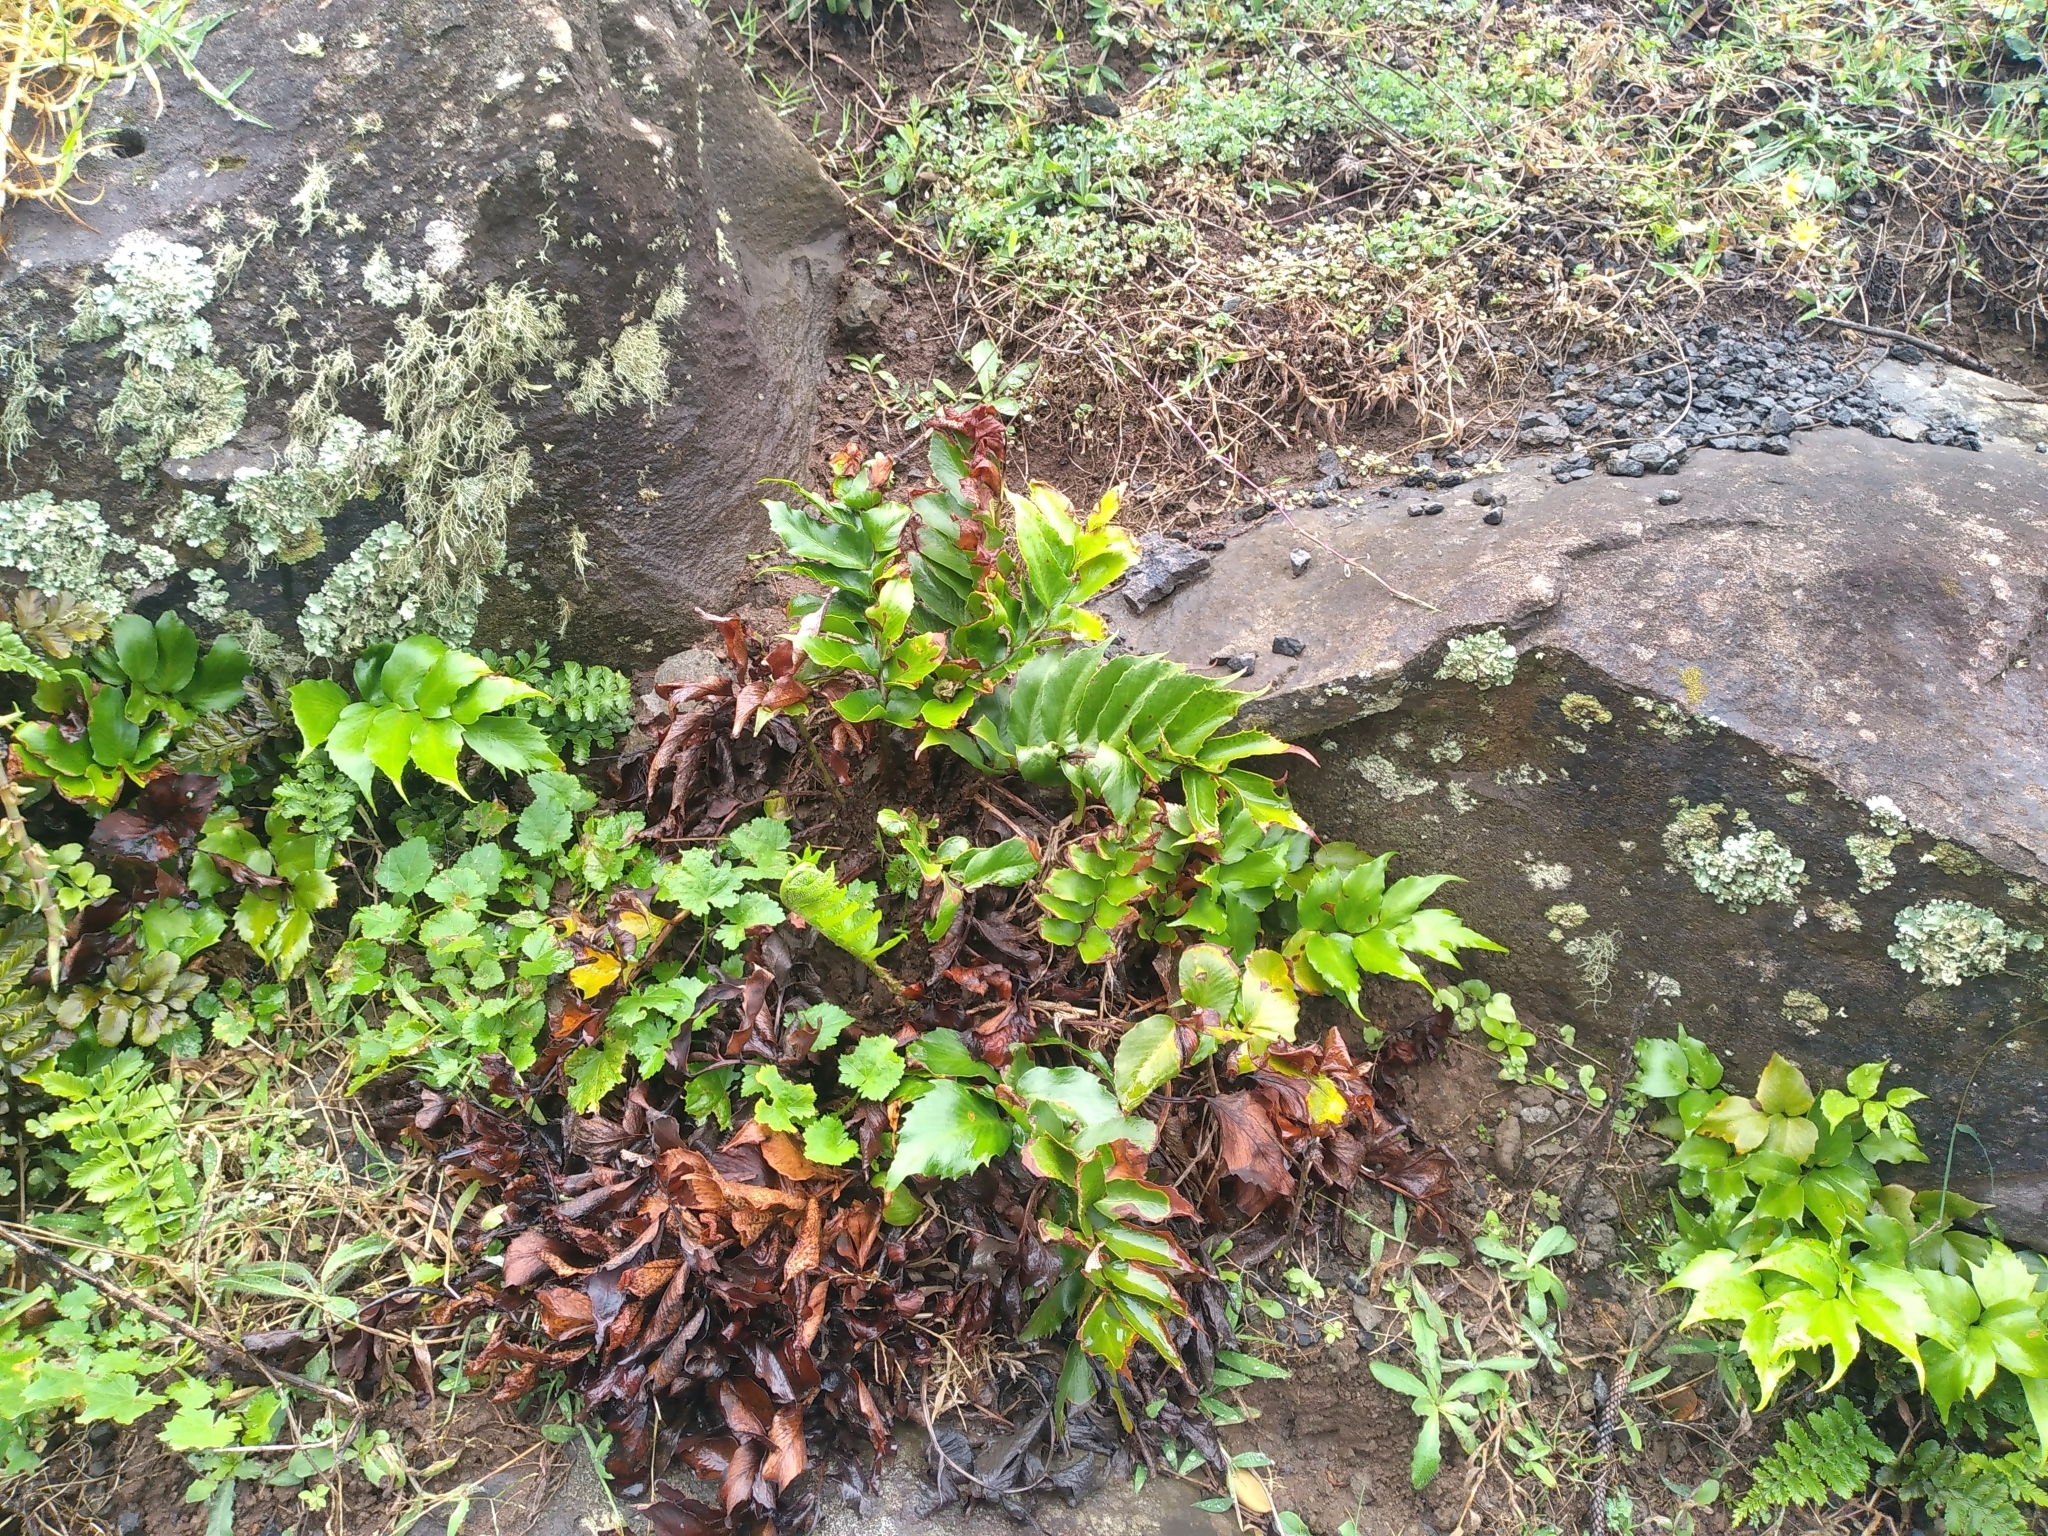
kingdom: Plantae
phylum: Tracheophyta
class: Polypodiopsida
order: Polypodiales
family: Dryopteridaceae
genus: Cyrtomium
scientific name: Cyrtomium falcatum
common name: House holly-fern
